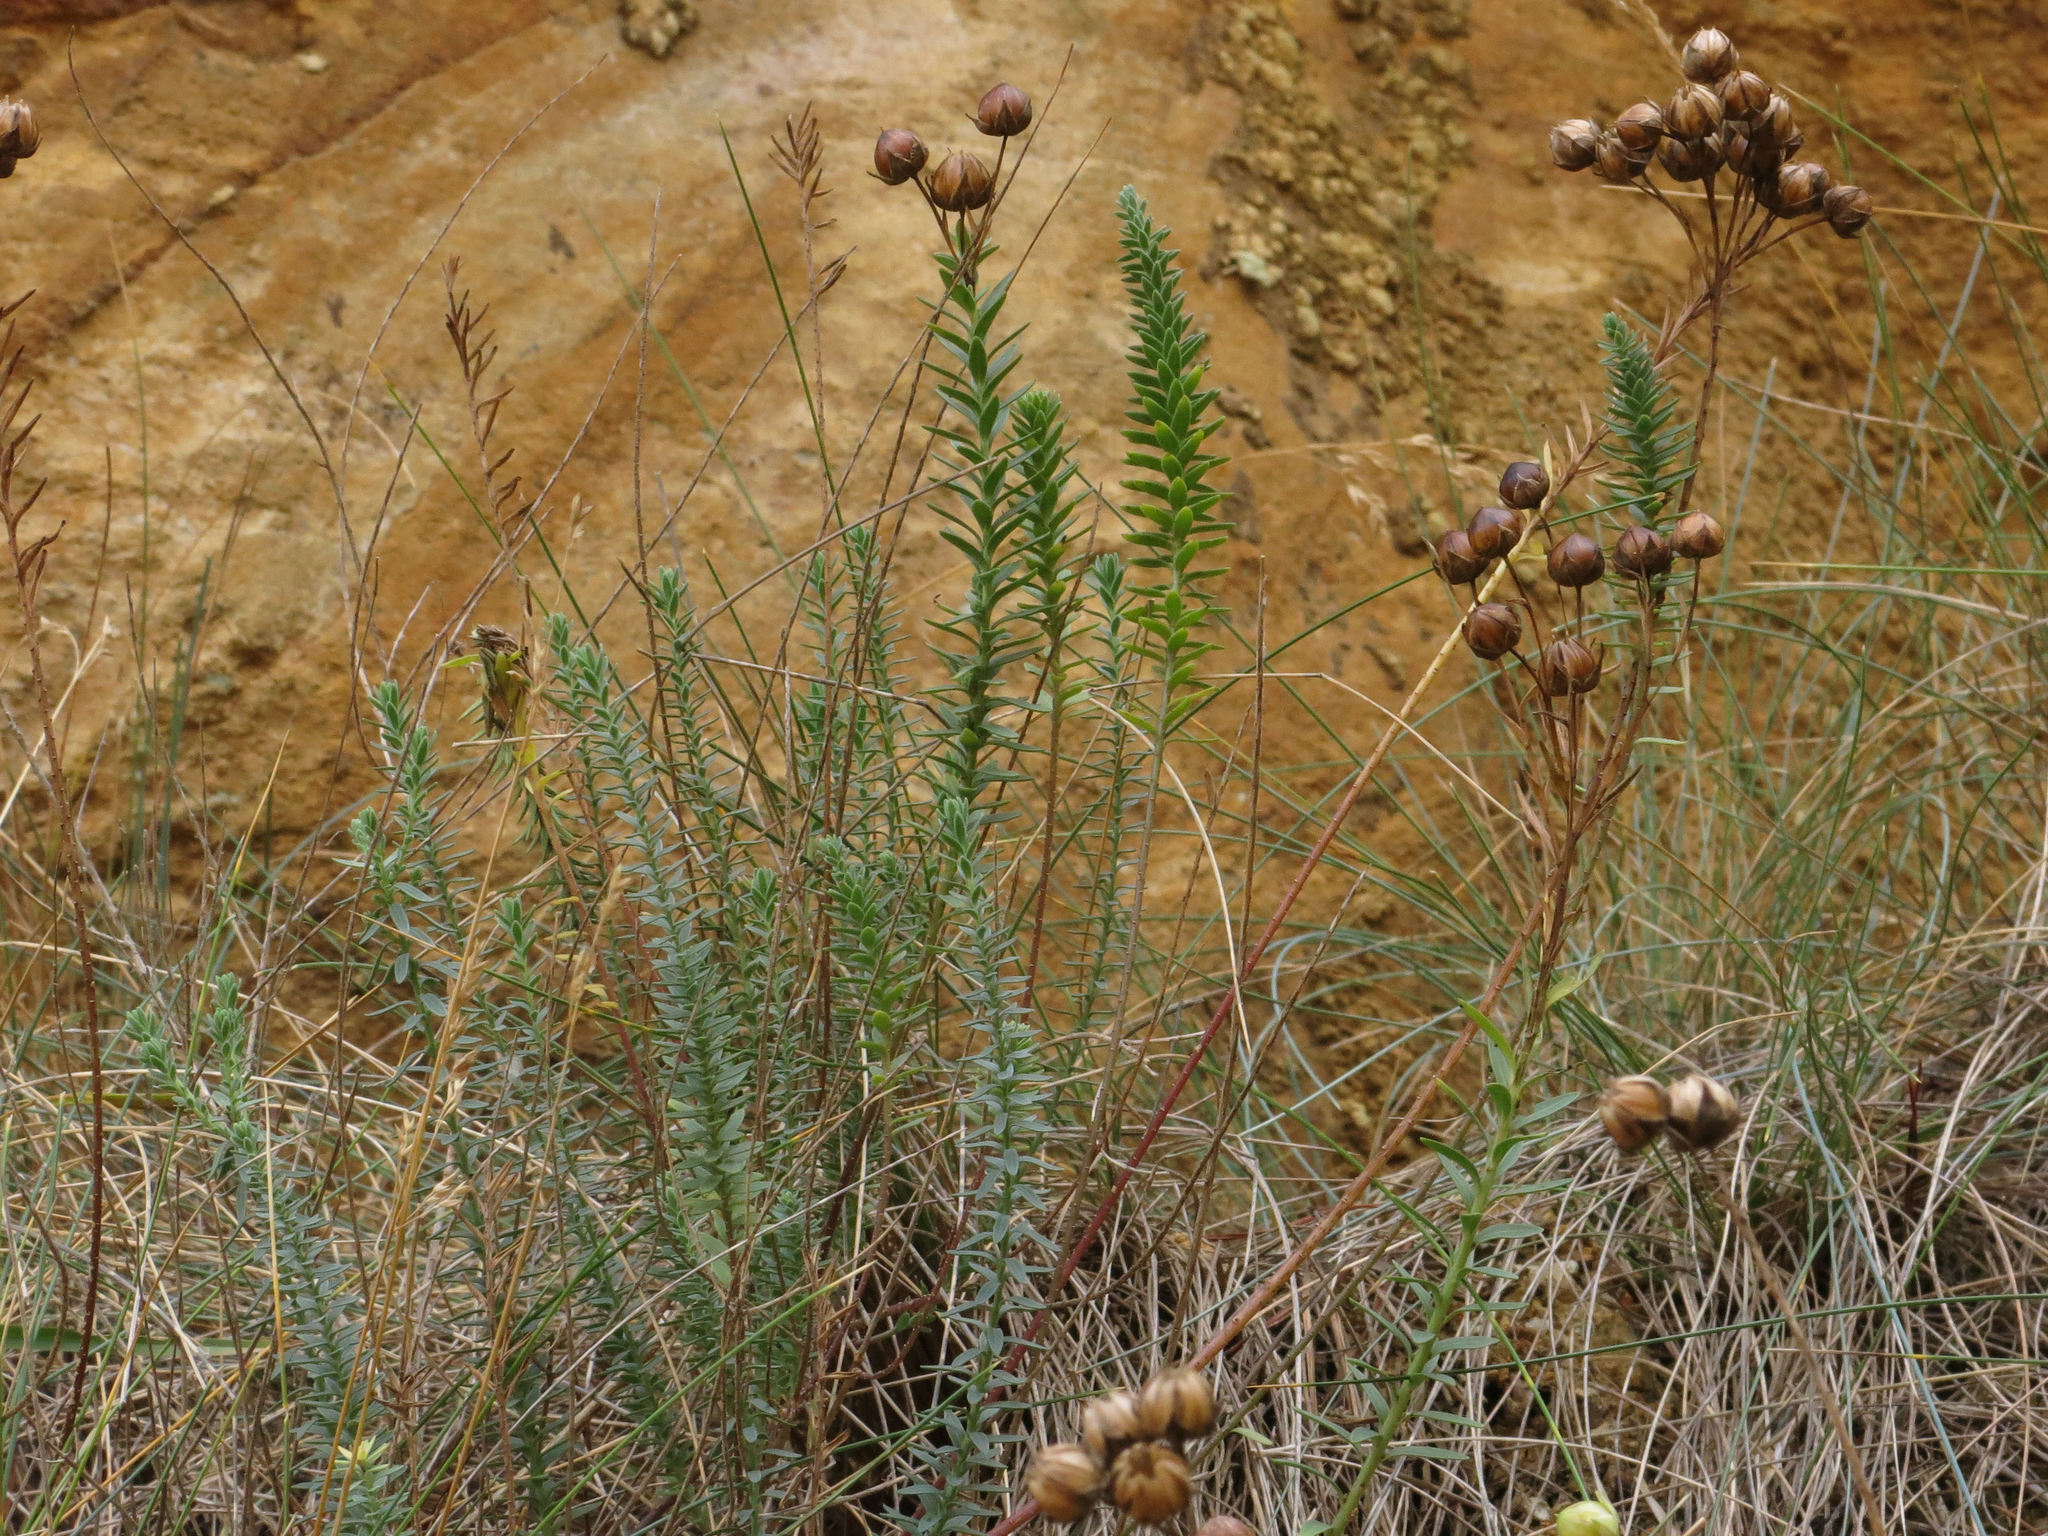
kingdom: Plantae
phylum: Tracheophyta
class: Magnoliopsida
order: Malpighiales
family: Linaceae
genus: Linum
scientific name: Linum monogynum
